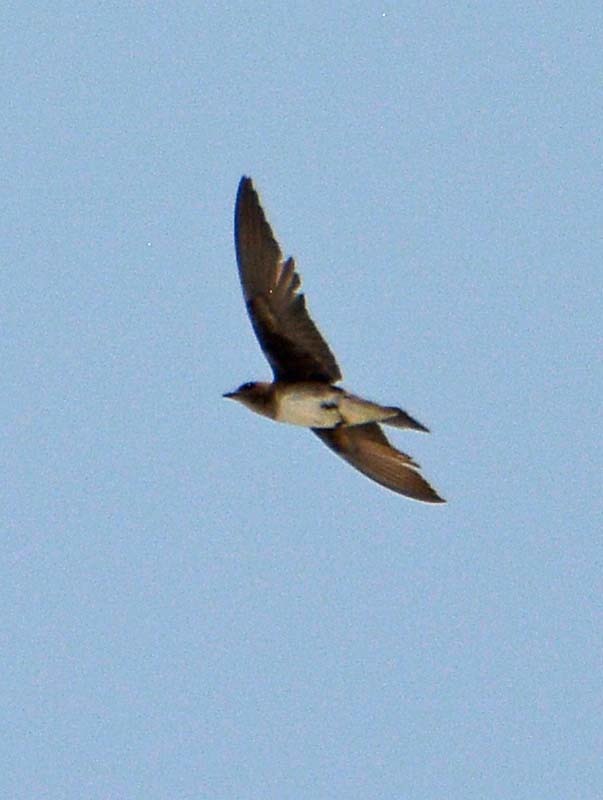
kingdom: Animalia
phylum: Chordata
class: Aves
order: Passeriformes
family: Hirundinidae
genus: Stelgidopteryx
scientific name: Stelgidopteryx serripennis
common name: Northern rough-winged swallow
